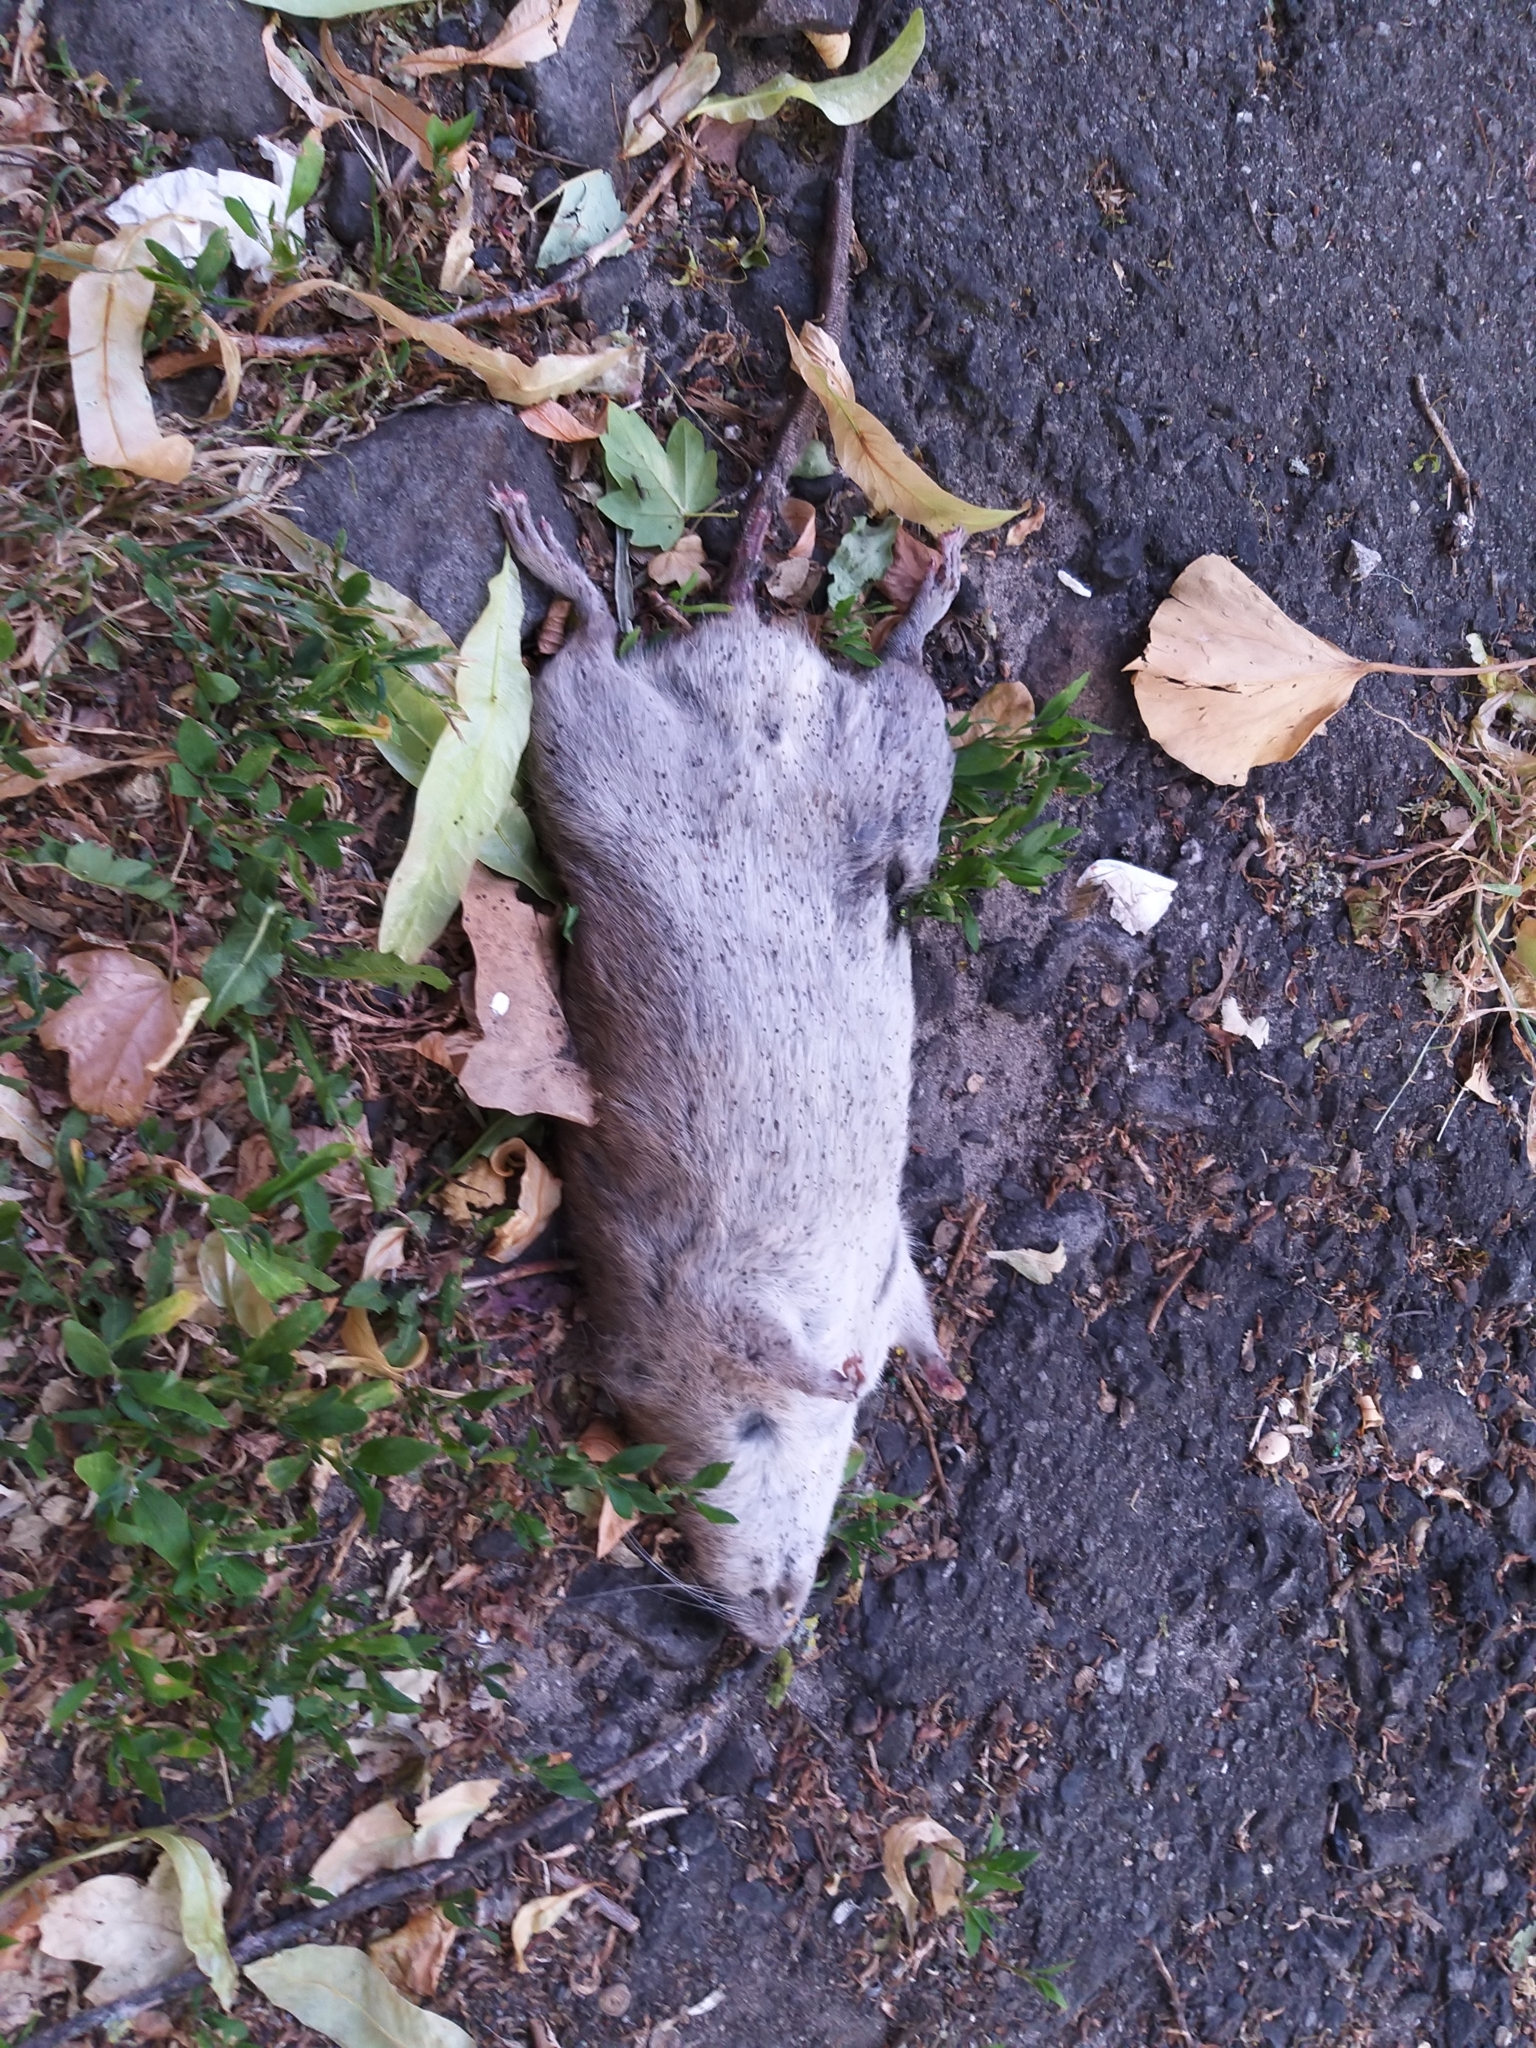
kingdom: Animalia
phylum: Chordata
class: Mammalia
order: Rodentia
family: Muridae
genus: Rattus
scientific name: Rattus norvegicus
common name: Brown rat
